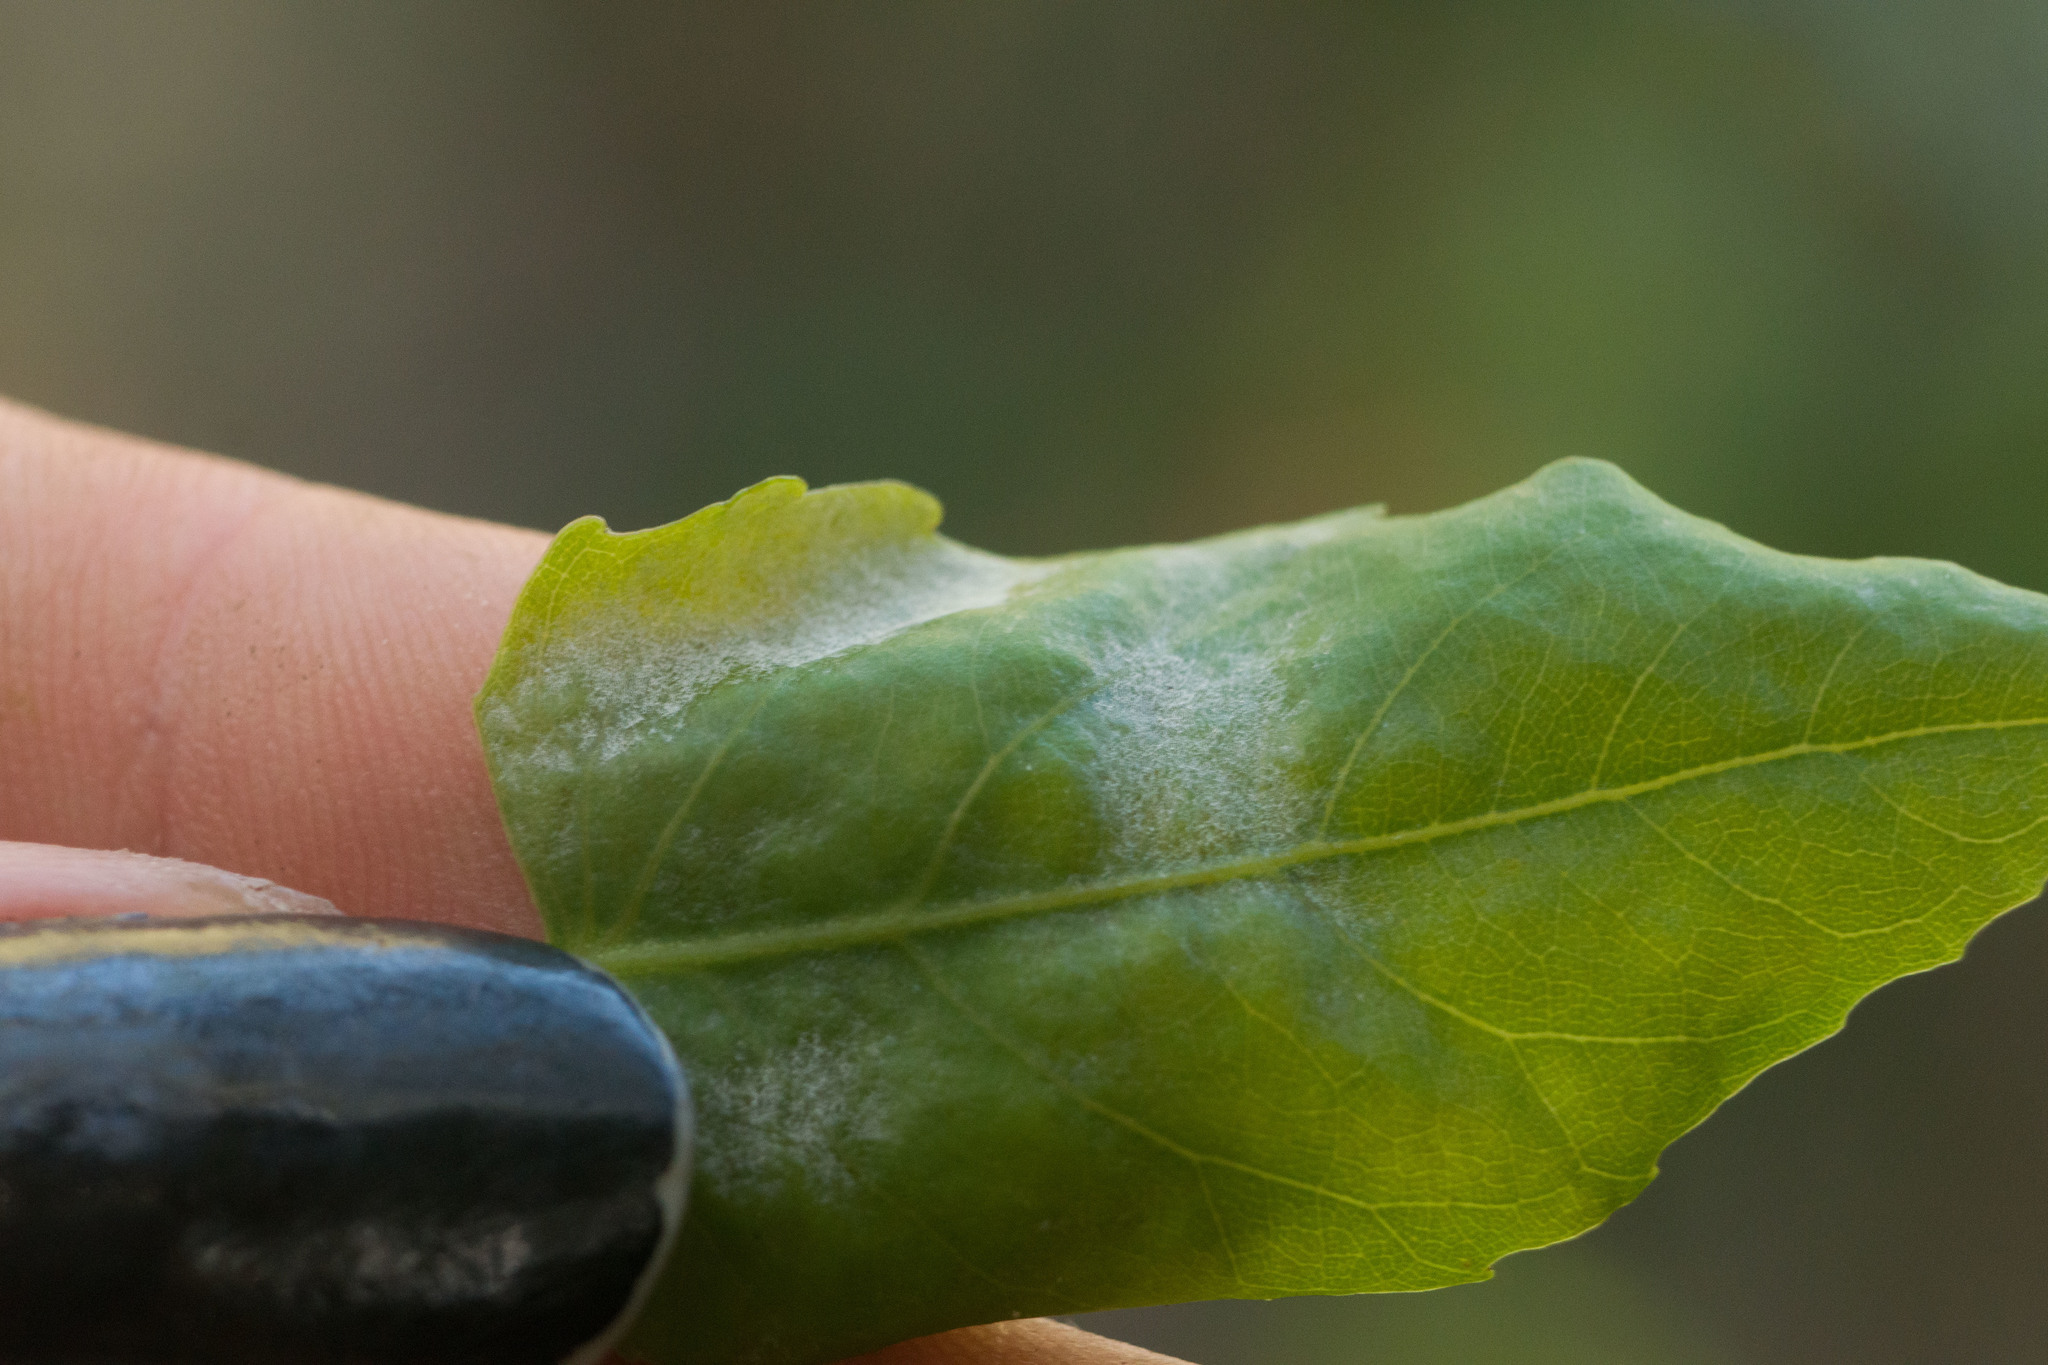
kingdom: Plantae
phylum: Tracheophyta
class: Magnoliopsida
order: Apiales
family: Araliaceae
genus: Polyscias
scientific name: Polyscias sandwicensis
